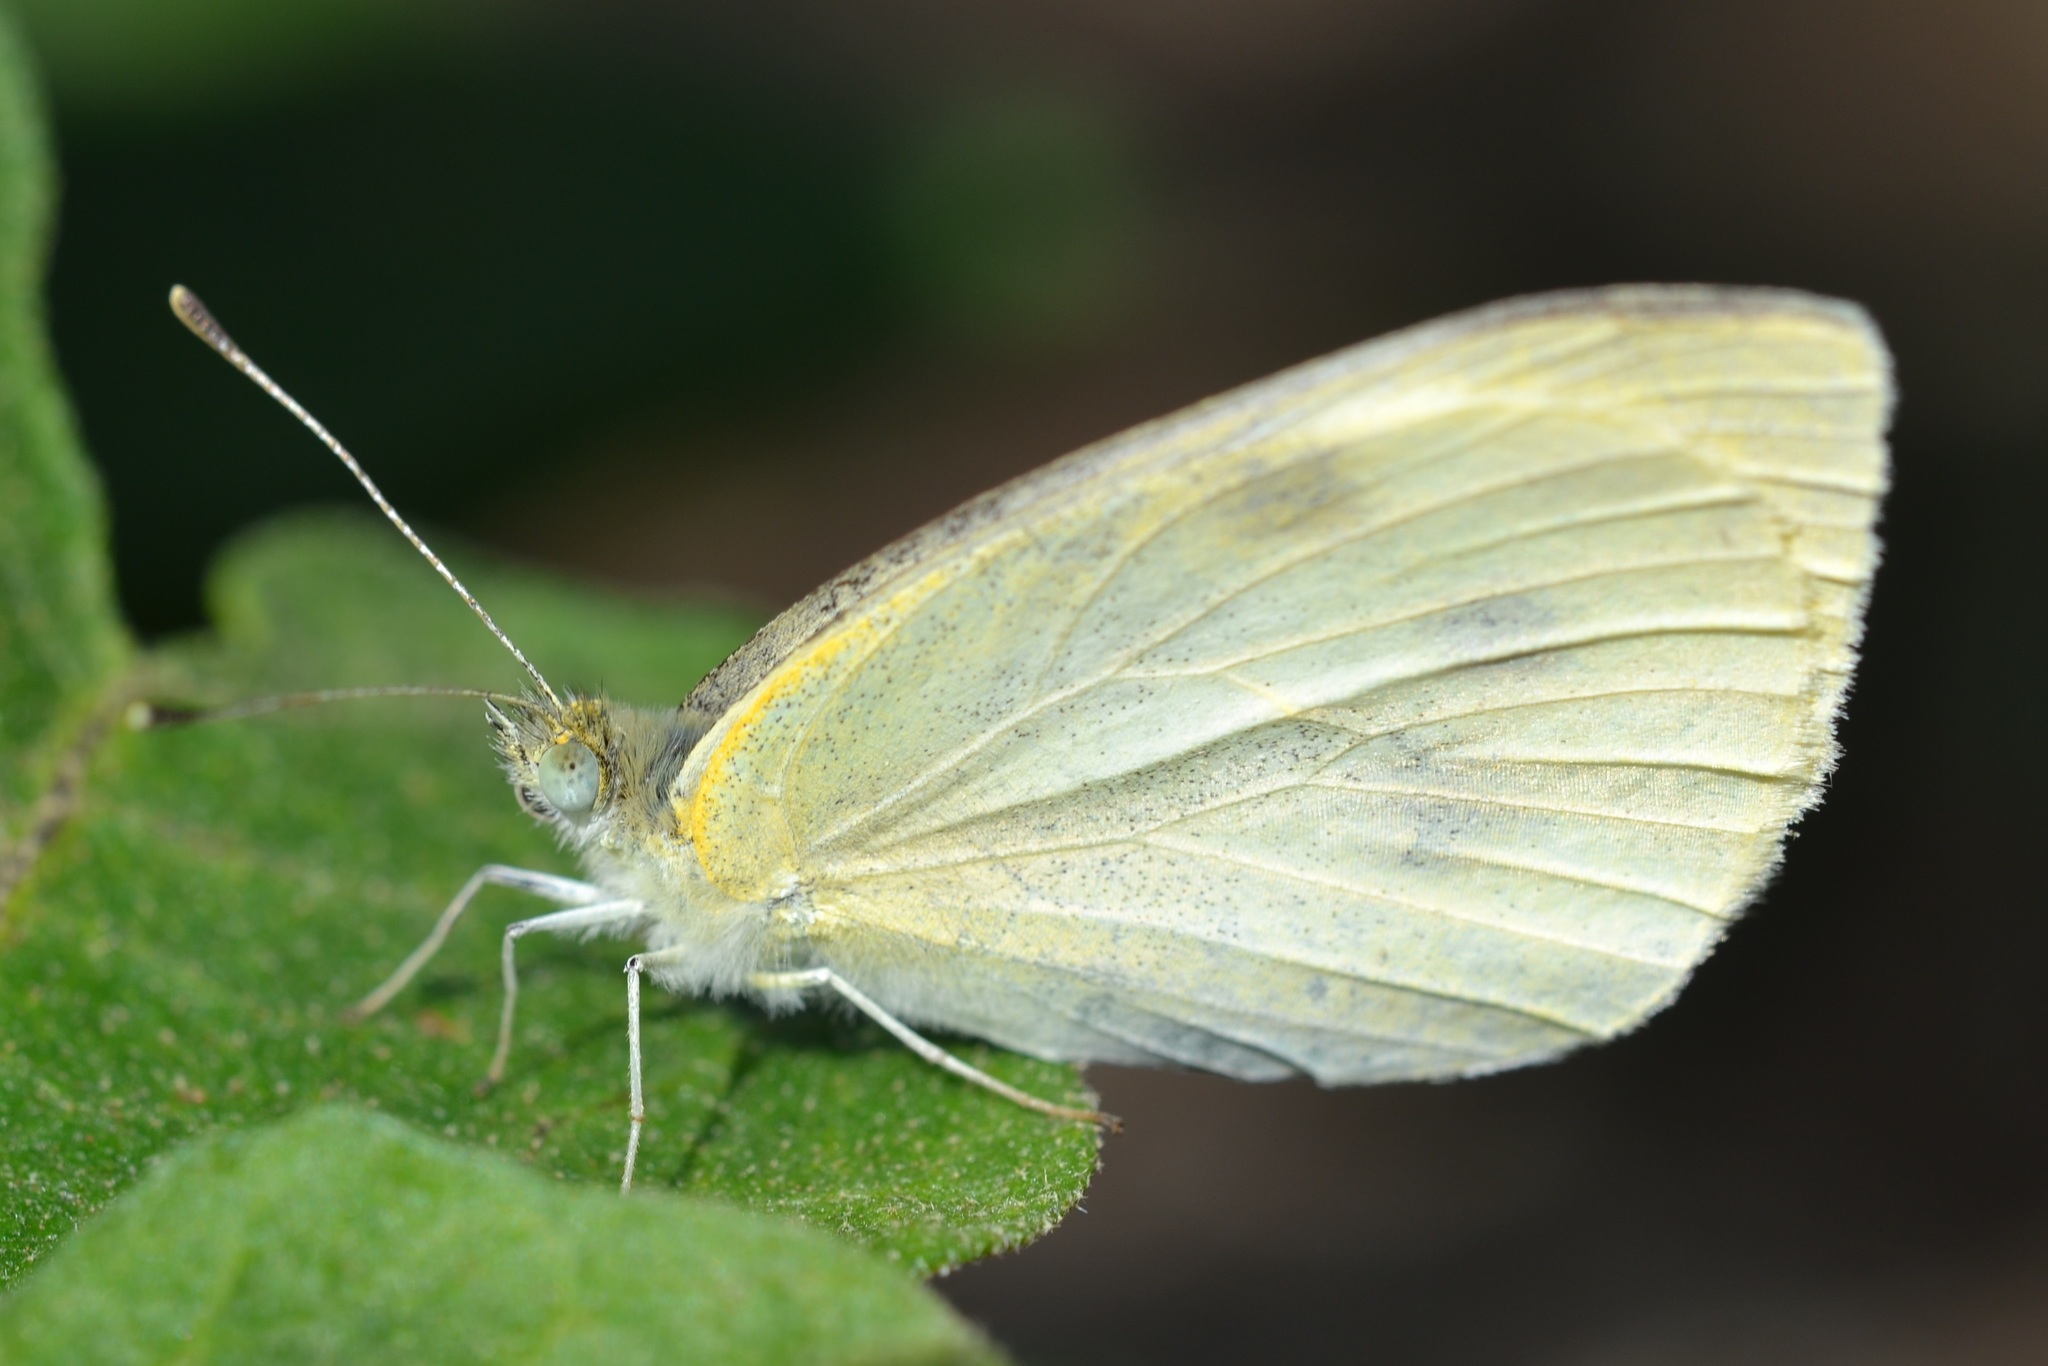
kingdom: Animalia
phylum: Arthropoda
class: Insecta
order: Lepidoptera
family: Pieridae
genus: Pieris
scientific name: Pieris rapae
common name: Small white
